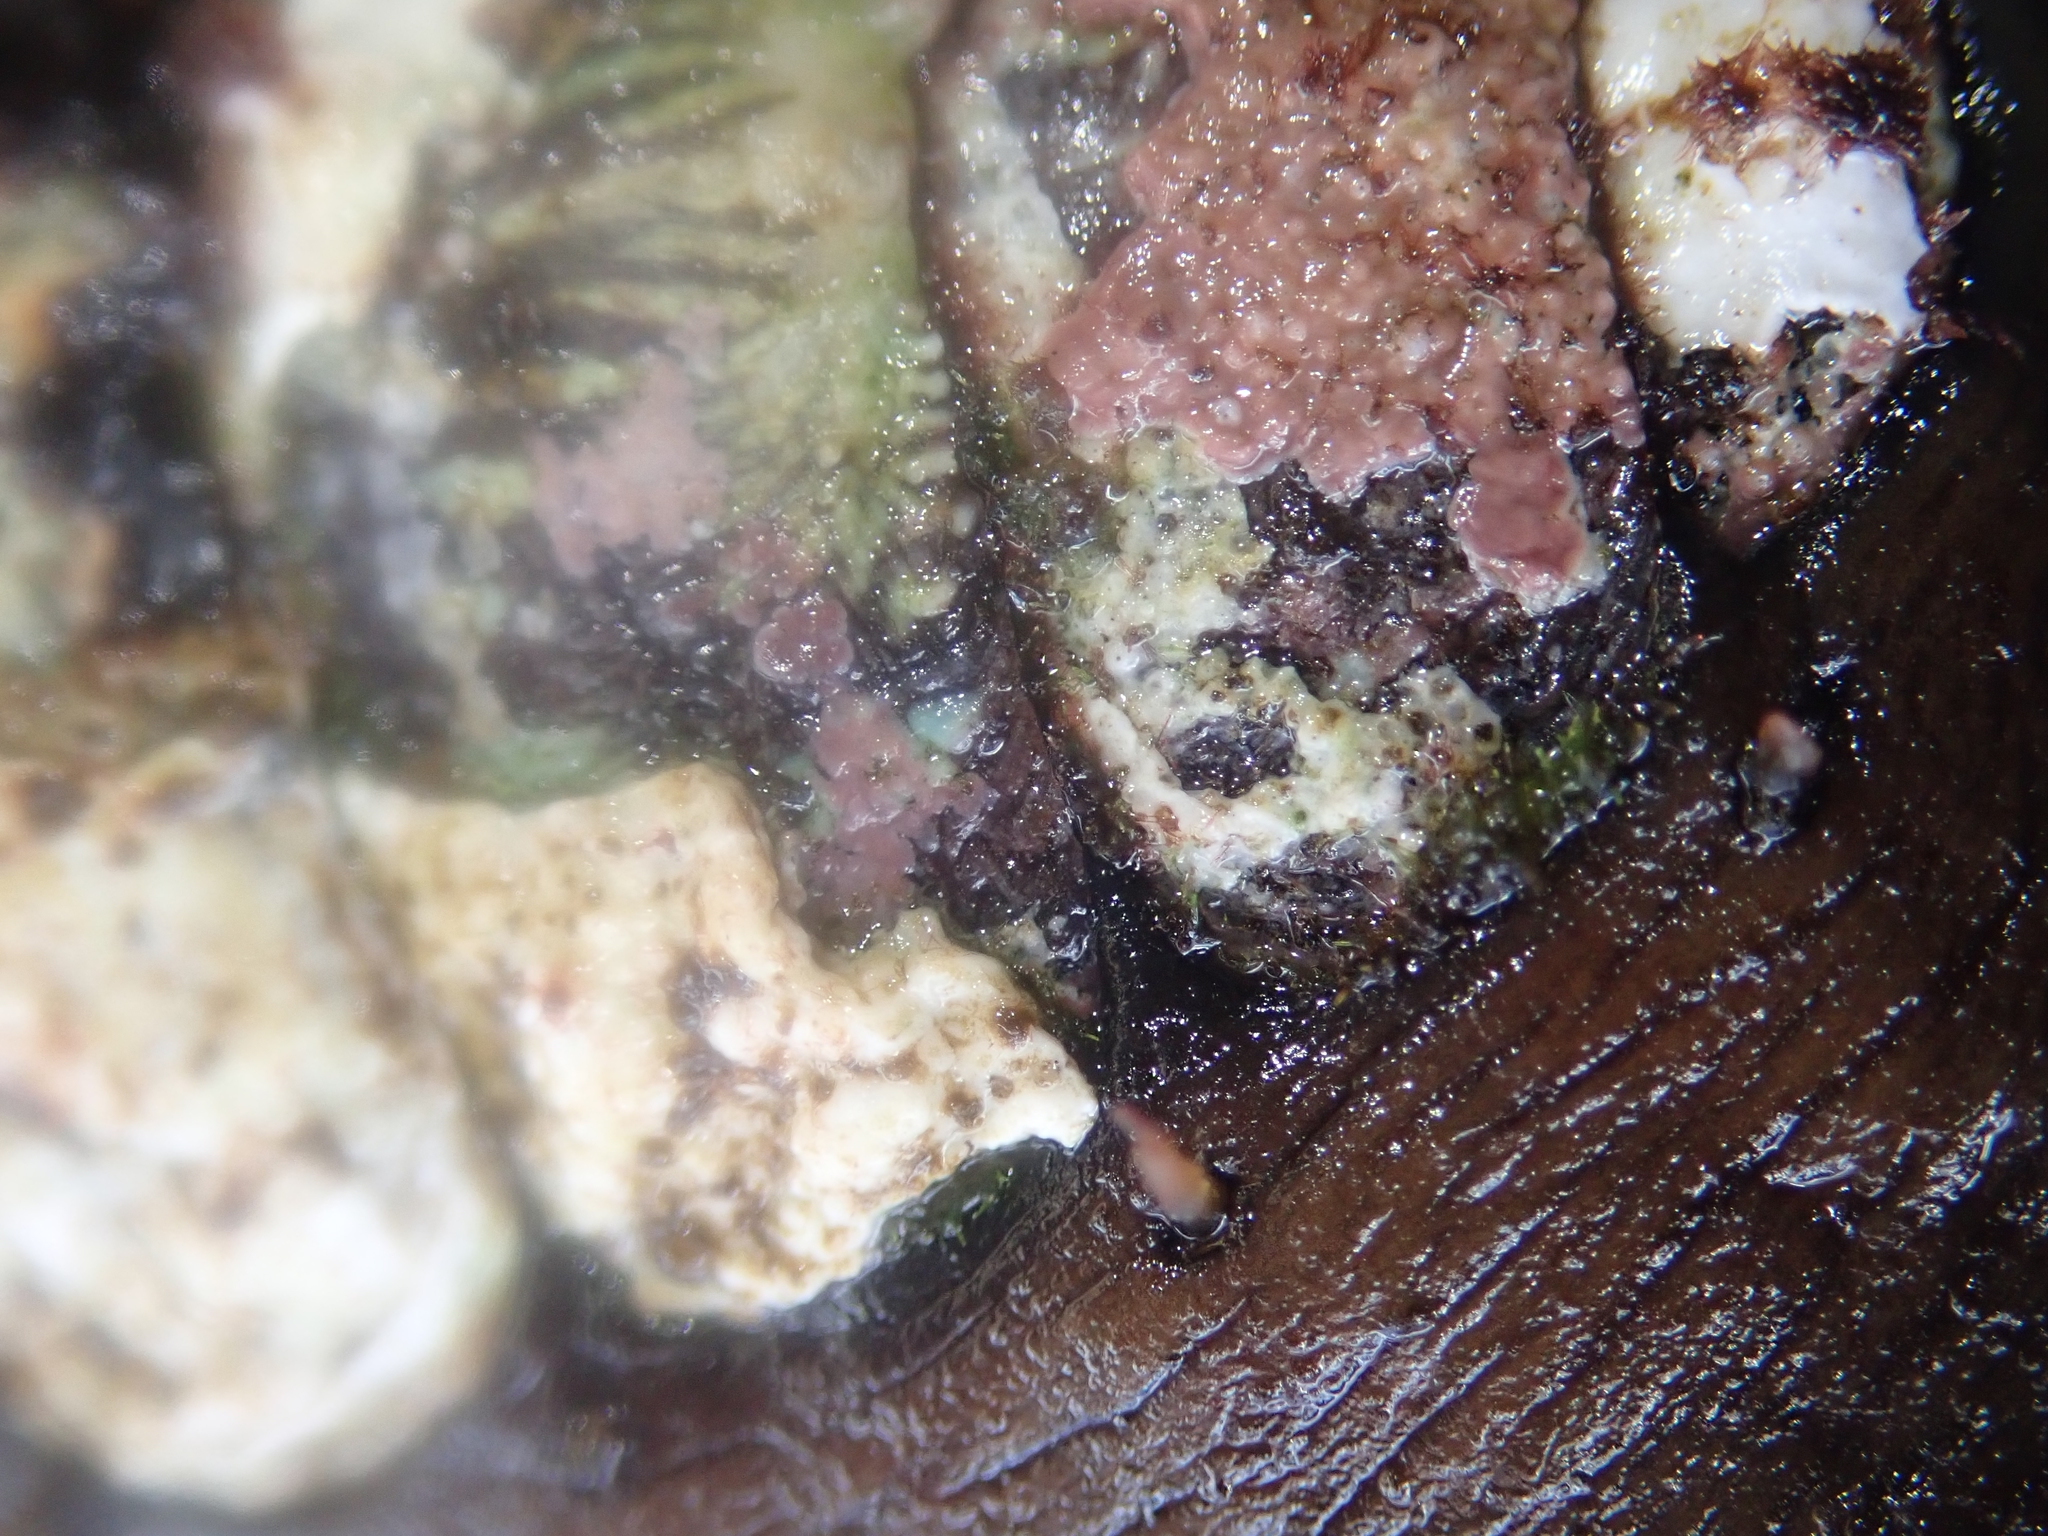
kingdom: Animalia
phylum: Mollusca
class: Polyplacophora
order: Chitonida
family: Mopaliidae
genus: Plaxiphora
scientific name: Plaxiphora biramosa
